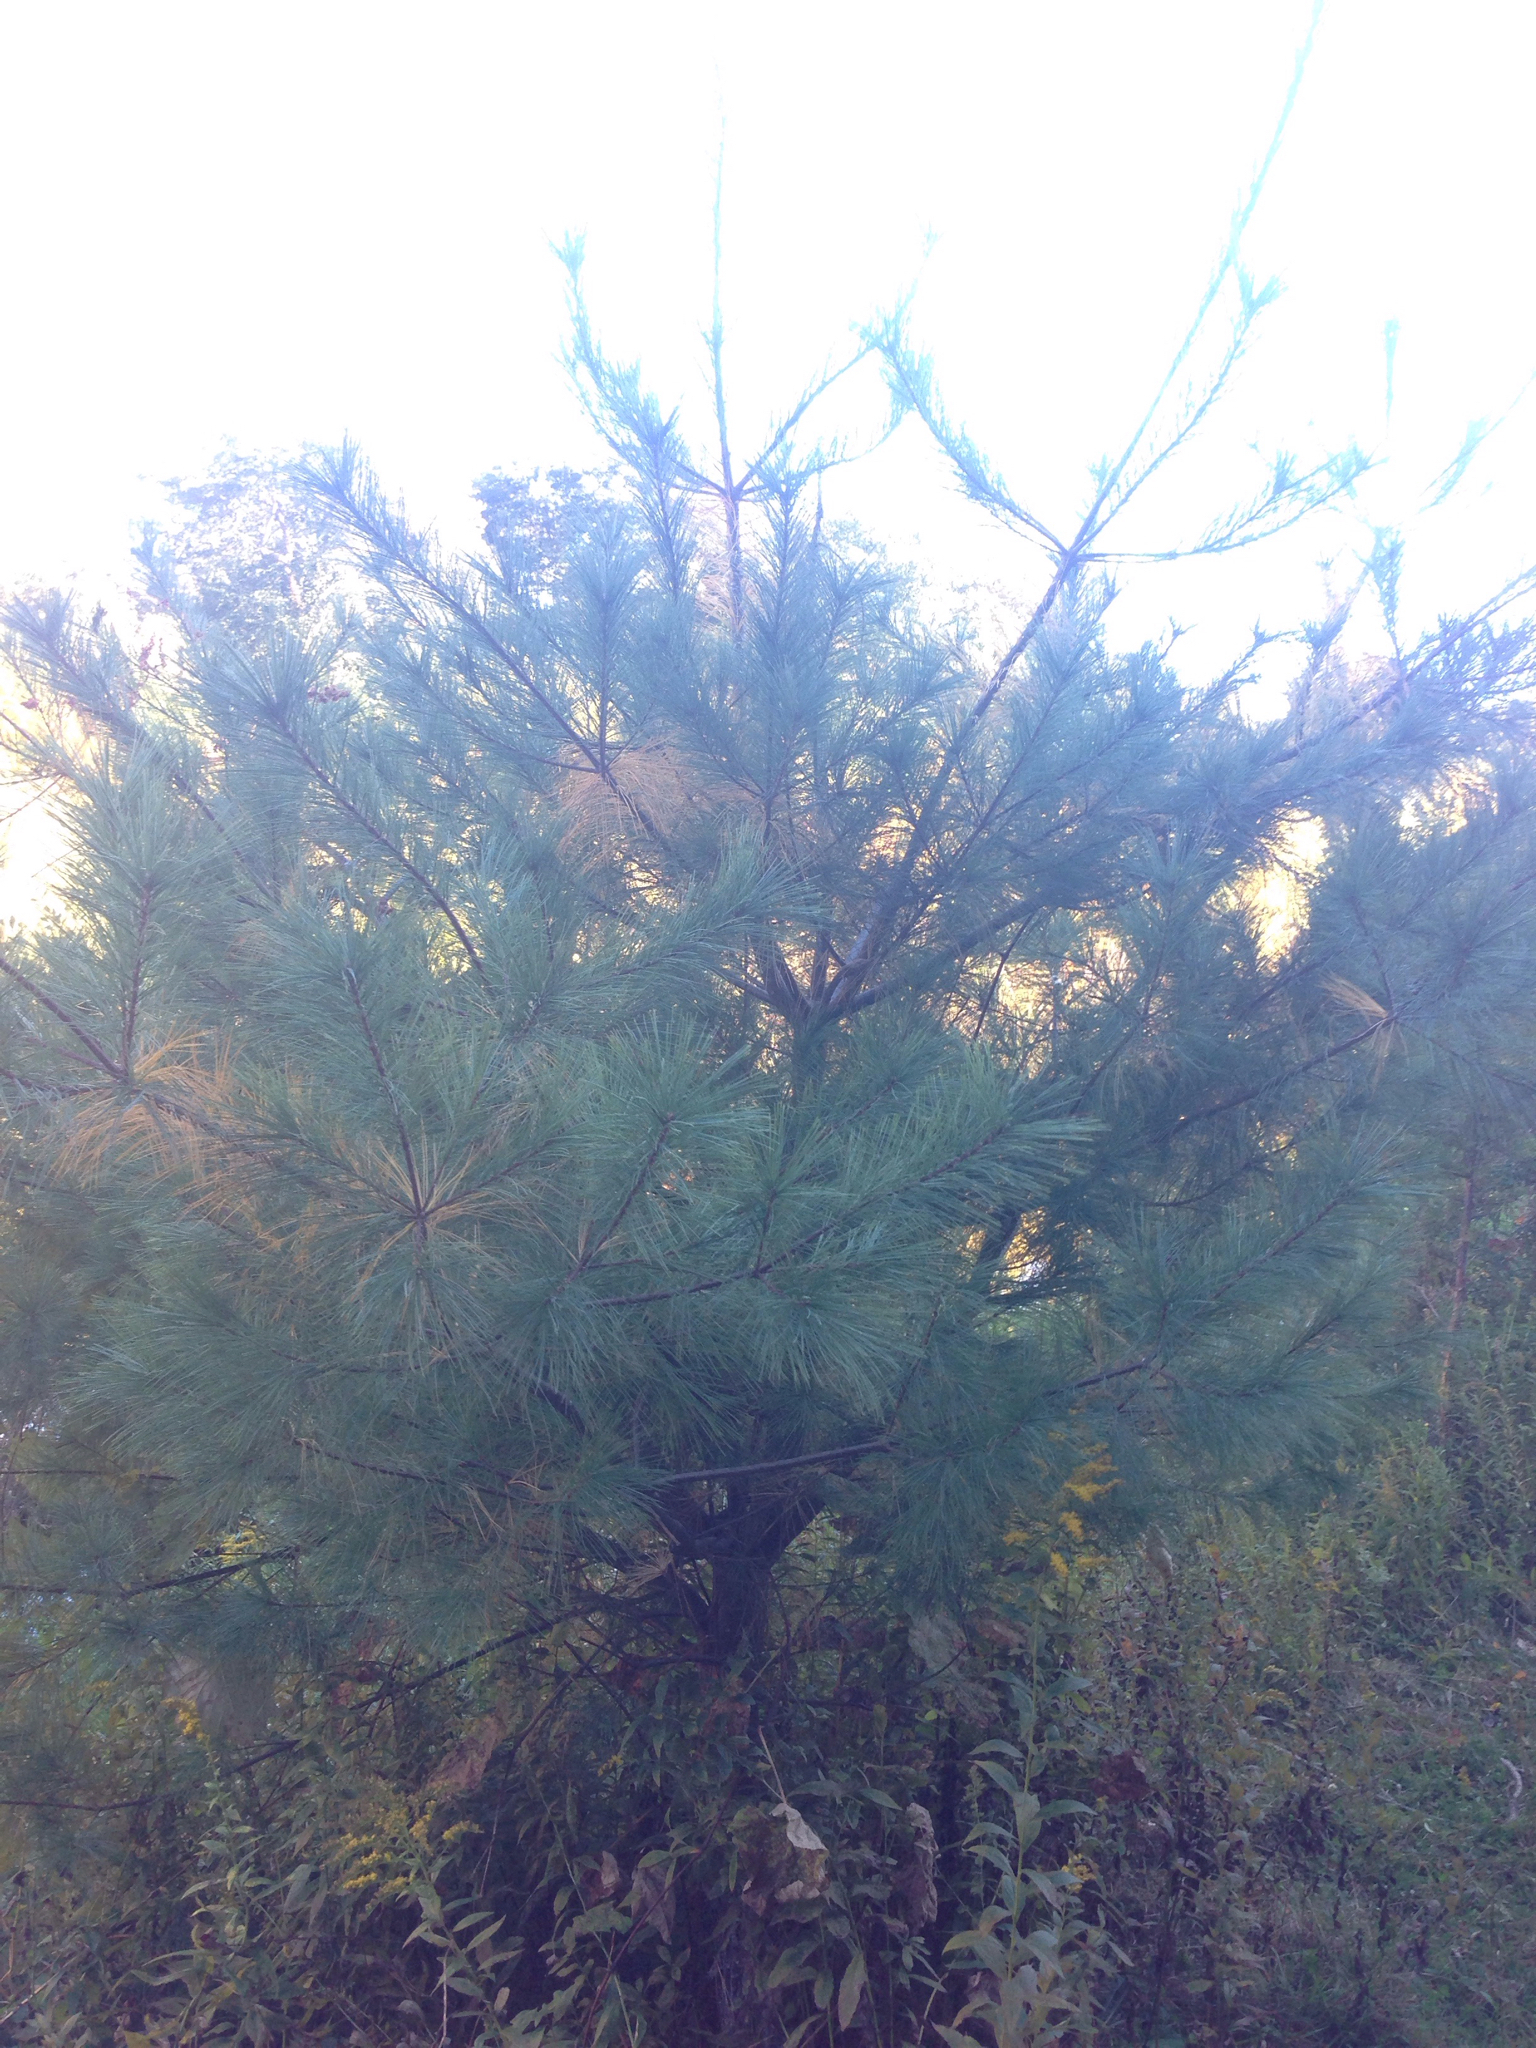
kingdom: Plantae
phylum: Tracheophyta
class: Pinopsida
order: Pinales
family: Pinaceae
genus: Pinus
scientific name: Pinus strobus
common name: Weymouth pine
